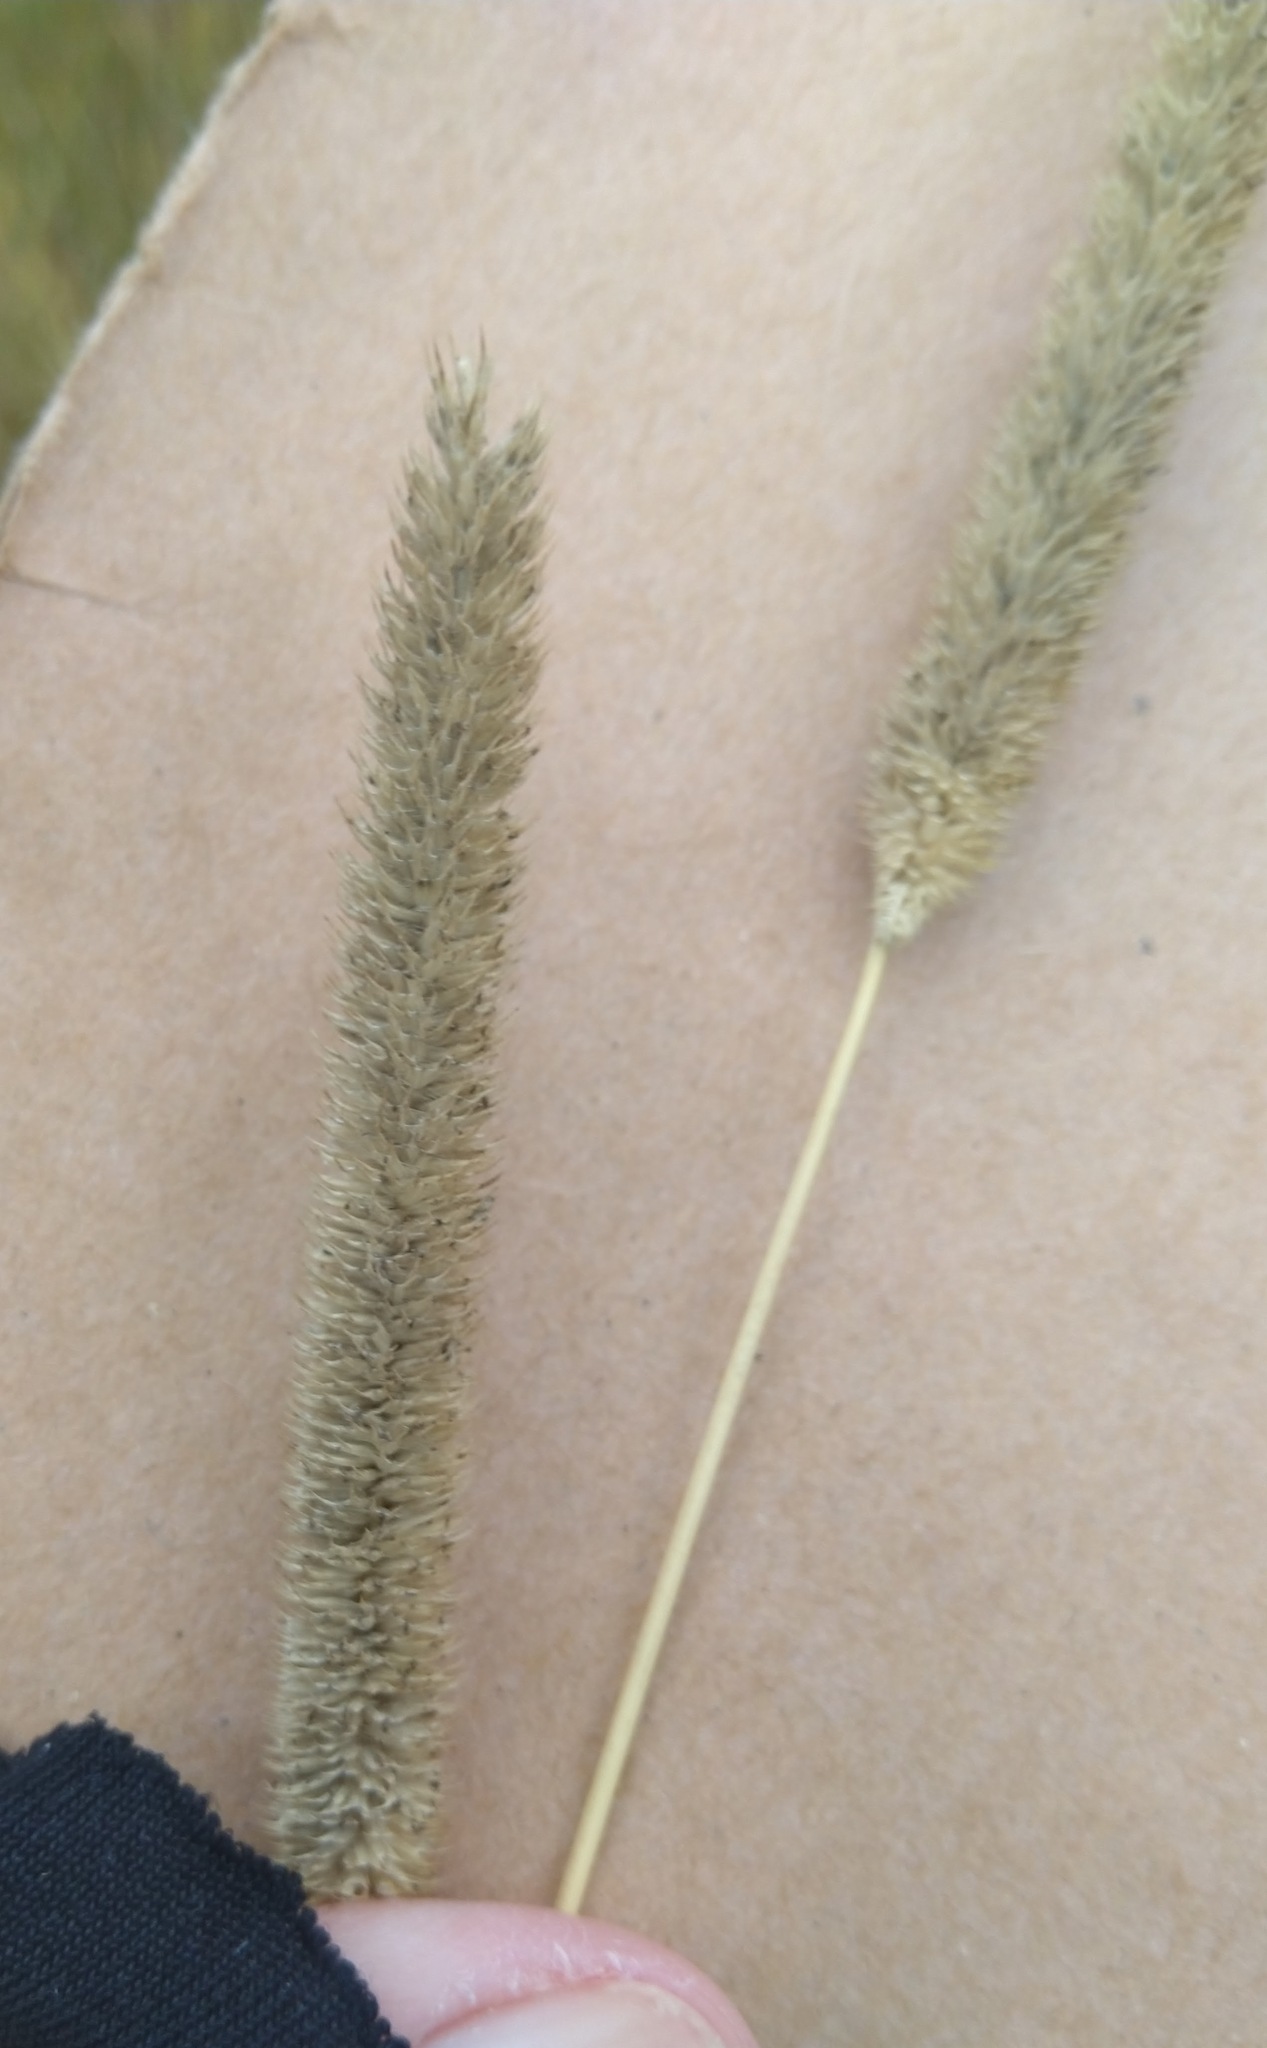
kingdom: Plantae
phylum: Tracheophyta
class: Liliopsida
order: Poales
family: Poaceae
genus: Phleum
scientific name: Phleum pratense
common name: Timothy grass
